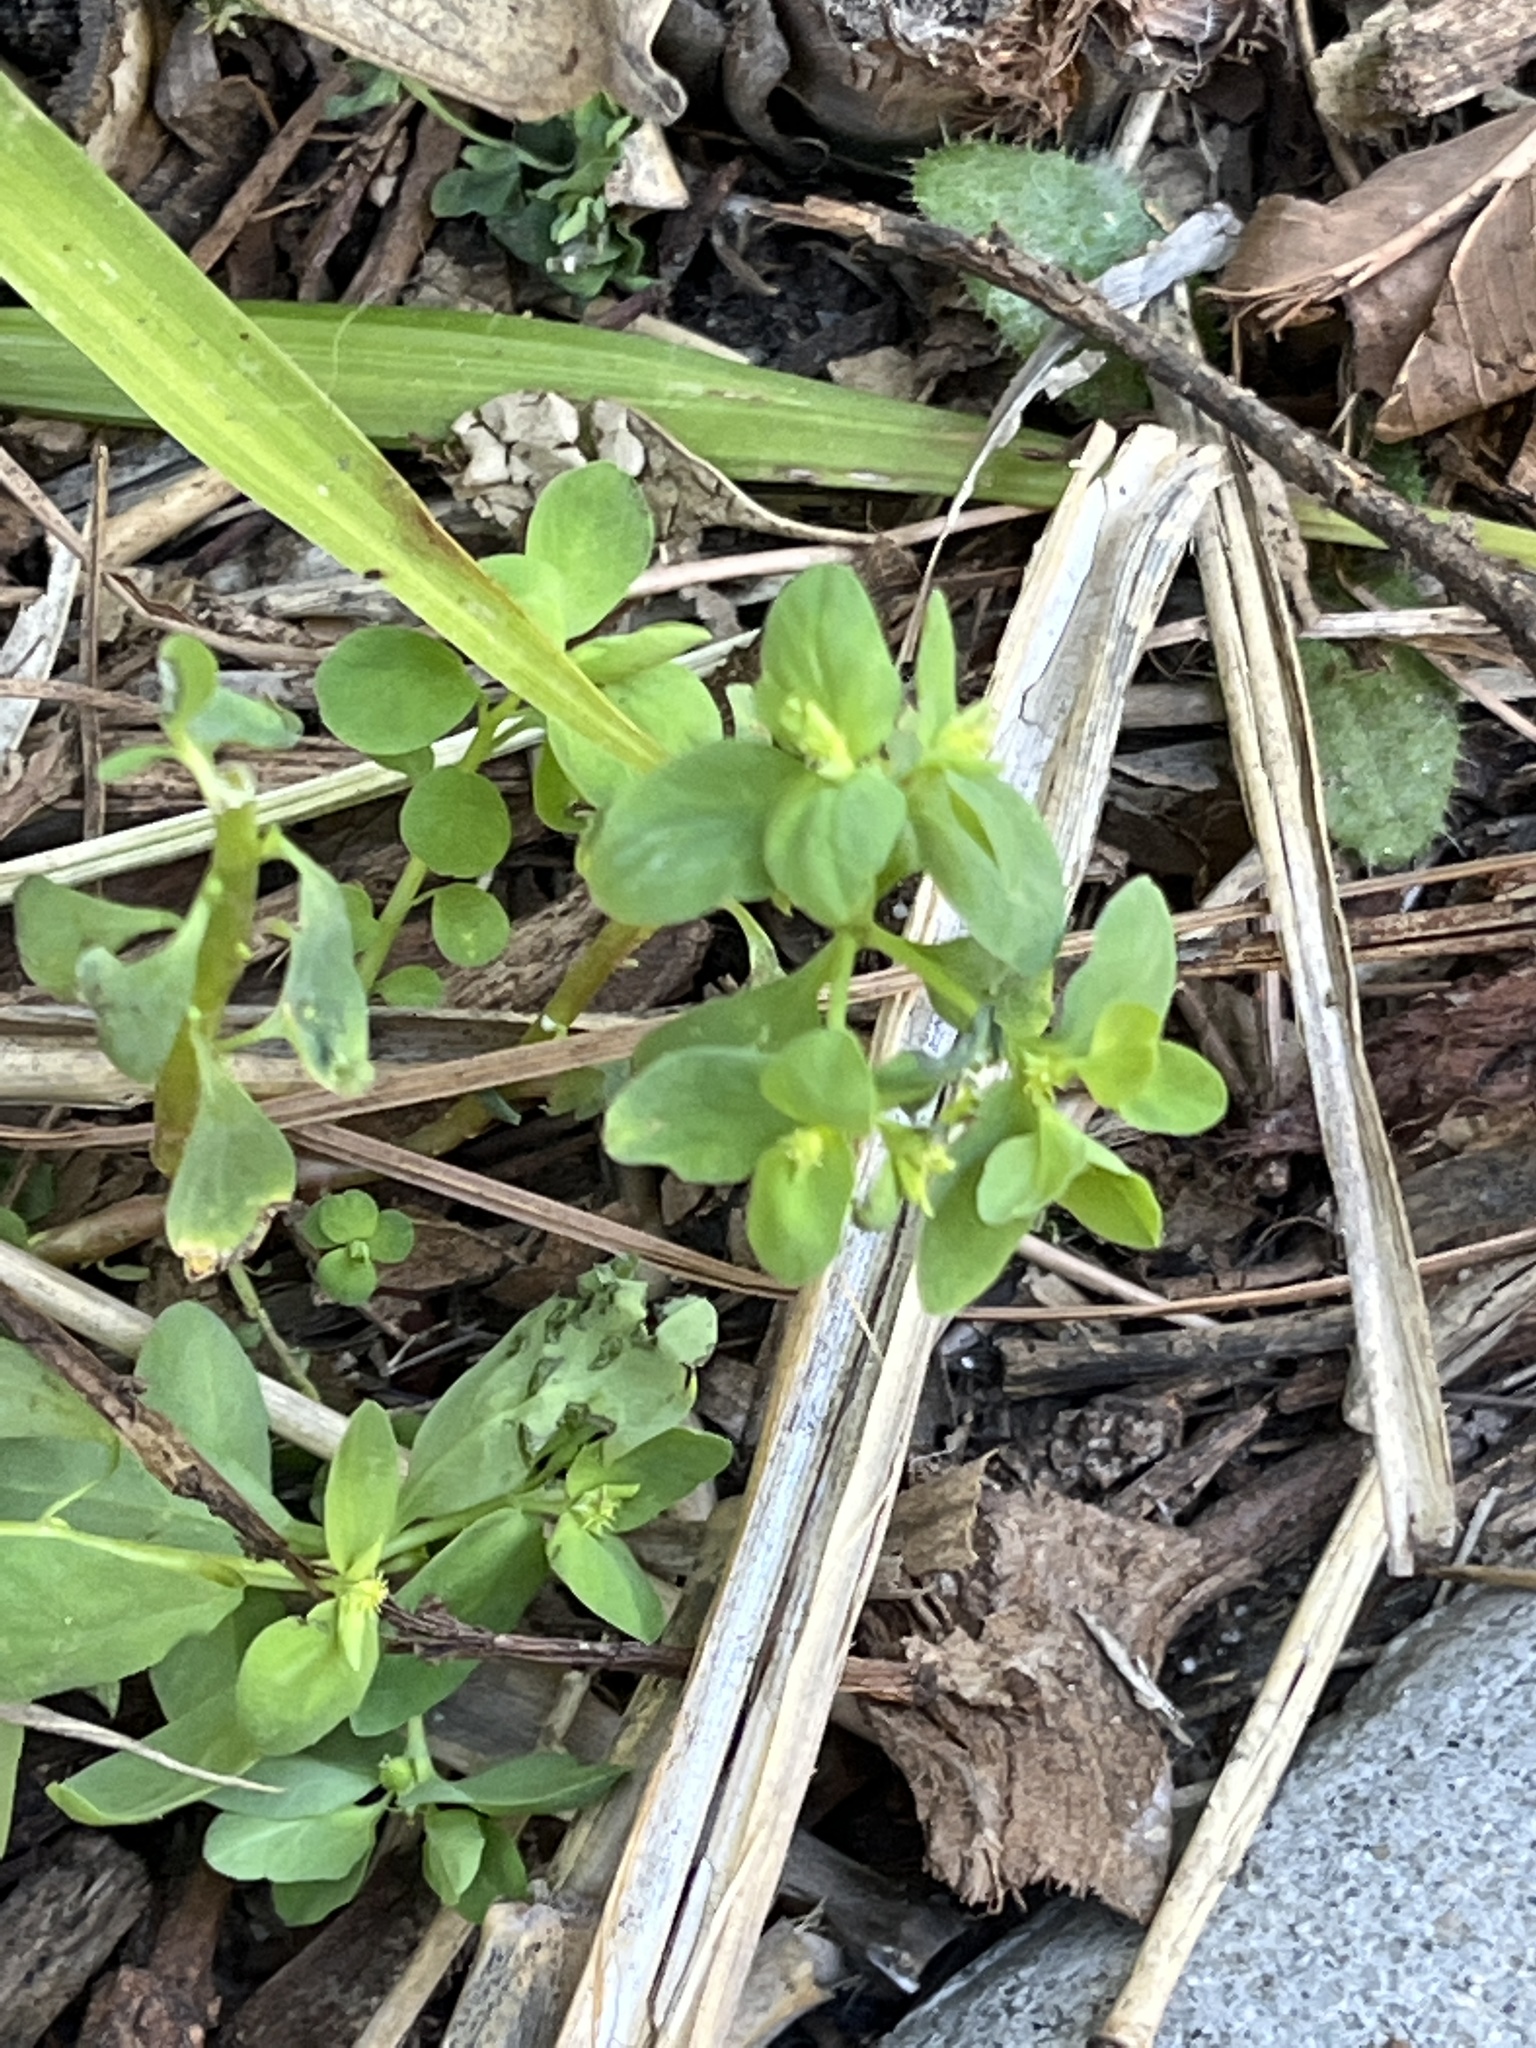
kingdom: Plantae
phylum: Tracheophyta
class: Magnoliopsida
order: Malpighiales
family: Euphorbiaceae
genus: Euphorbia
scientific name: Euphorbia peplus
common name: Petty spurge
